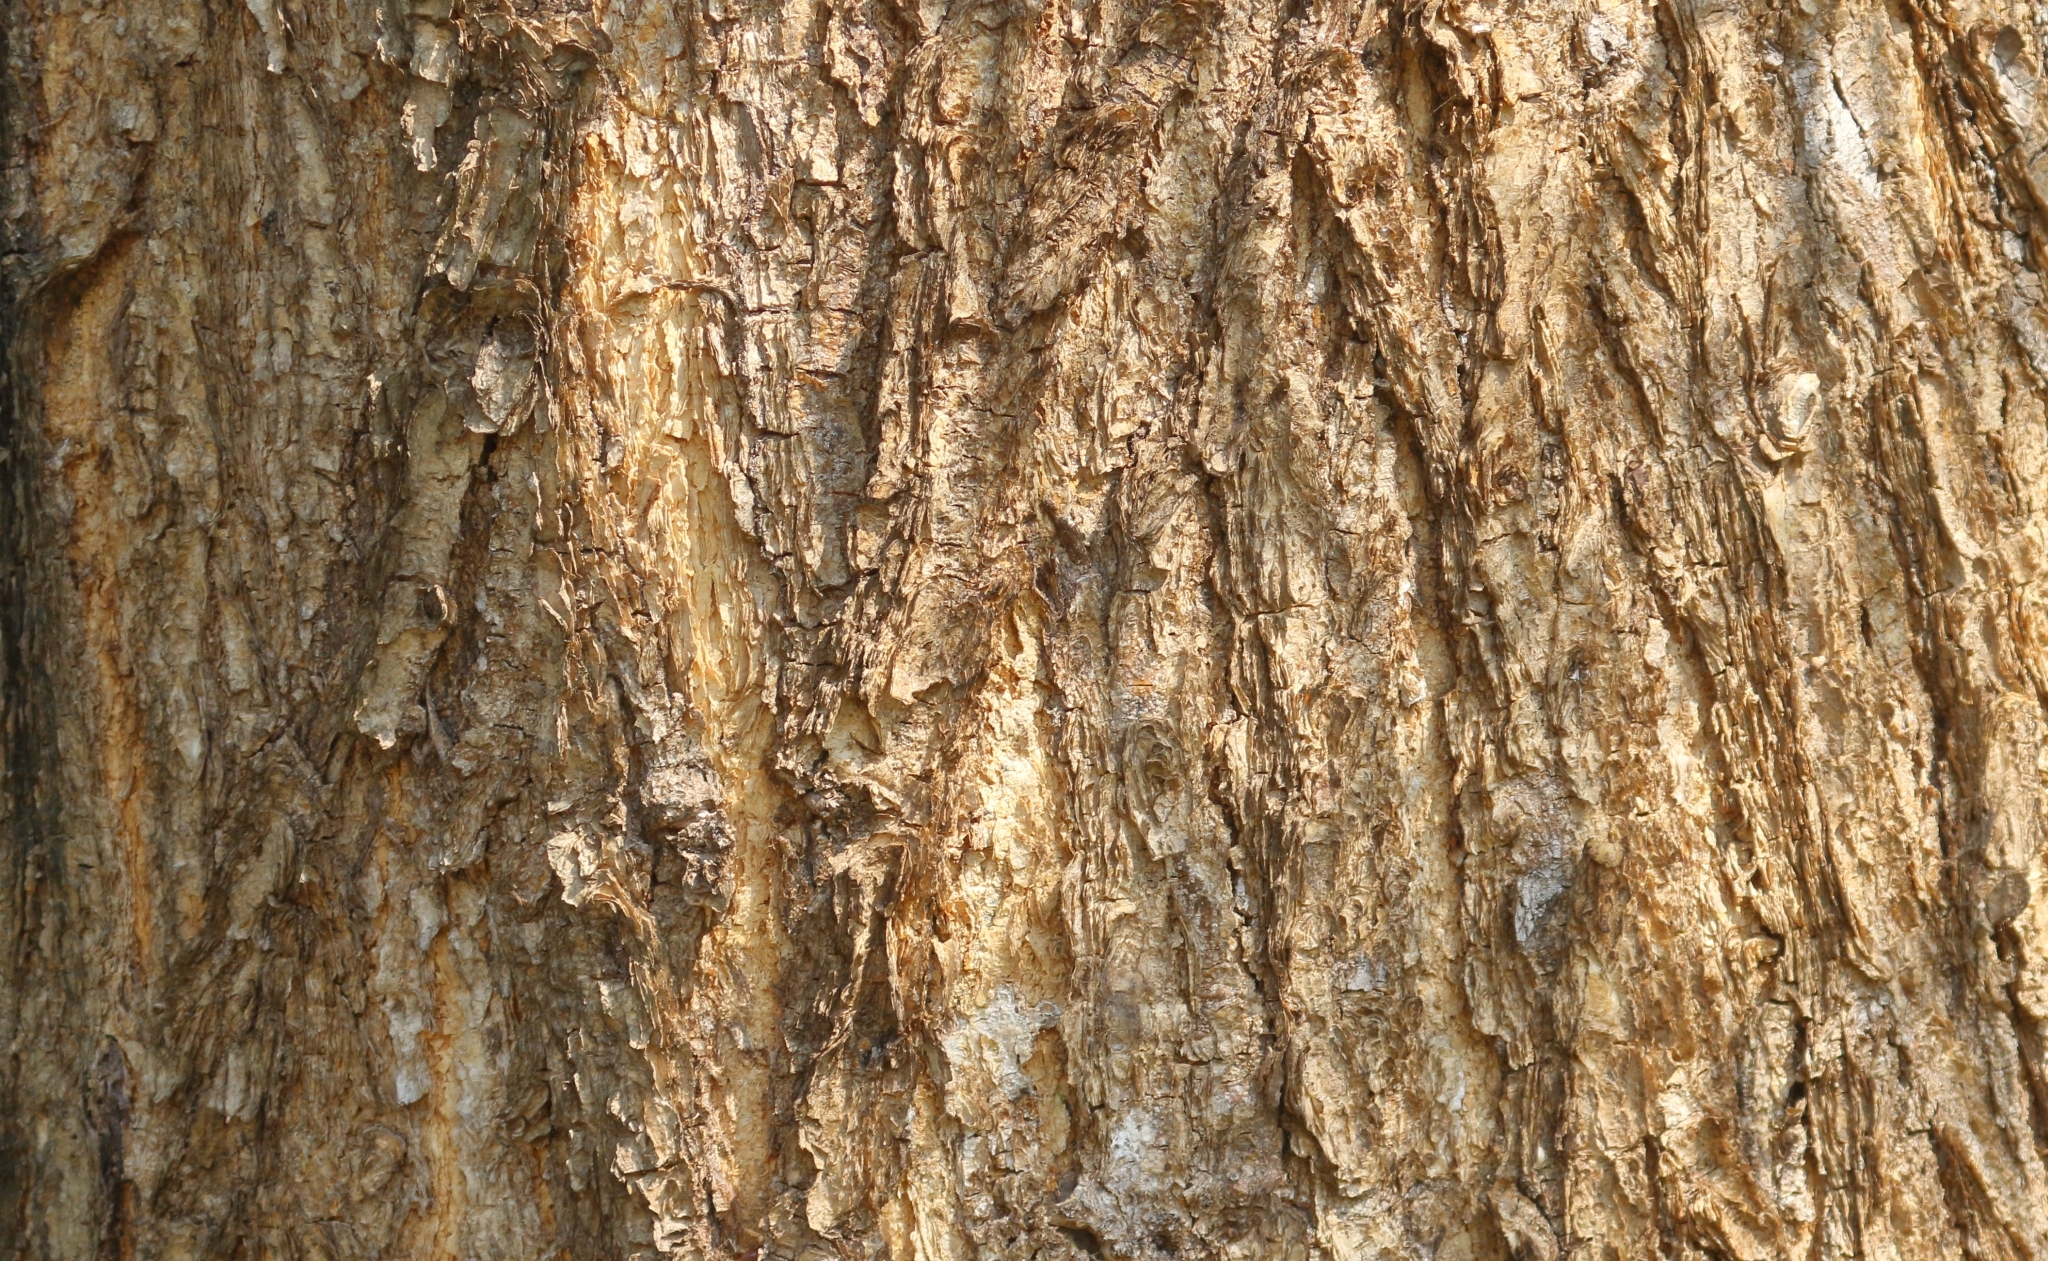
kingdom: Plantae
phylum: Tracheophyta
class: Magnoliopsida
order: Fabales
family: Fabaceae
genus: Senegalia
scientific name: Senegalia galpinii
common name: Monkey-thorn
